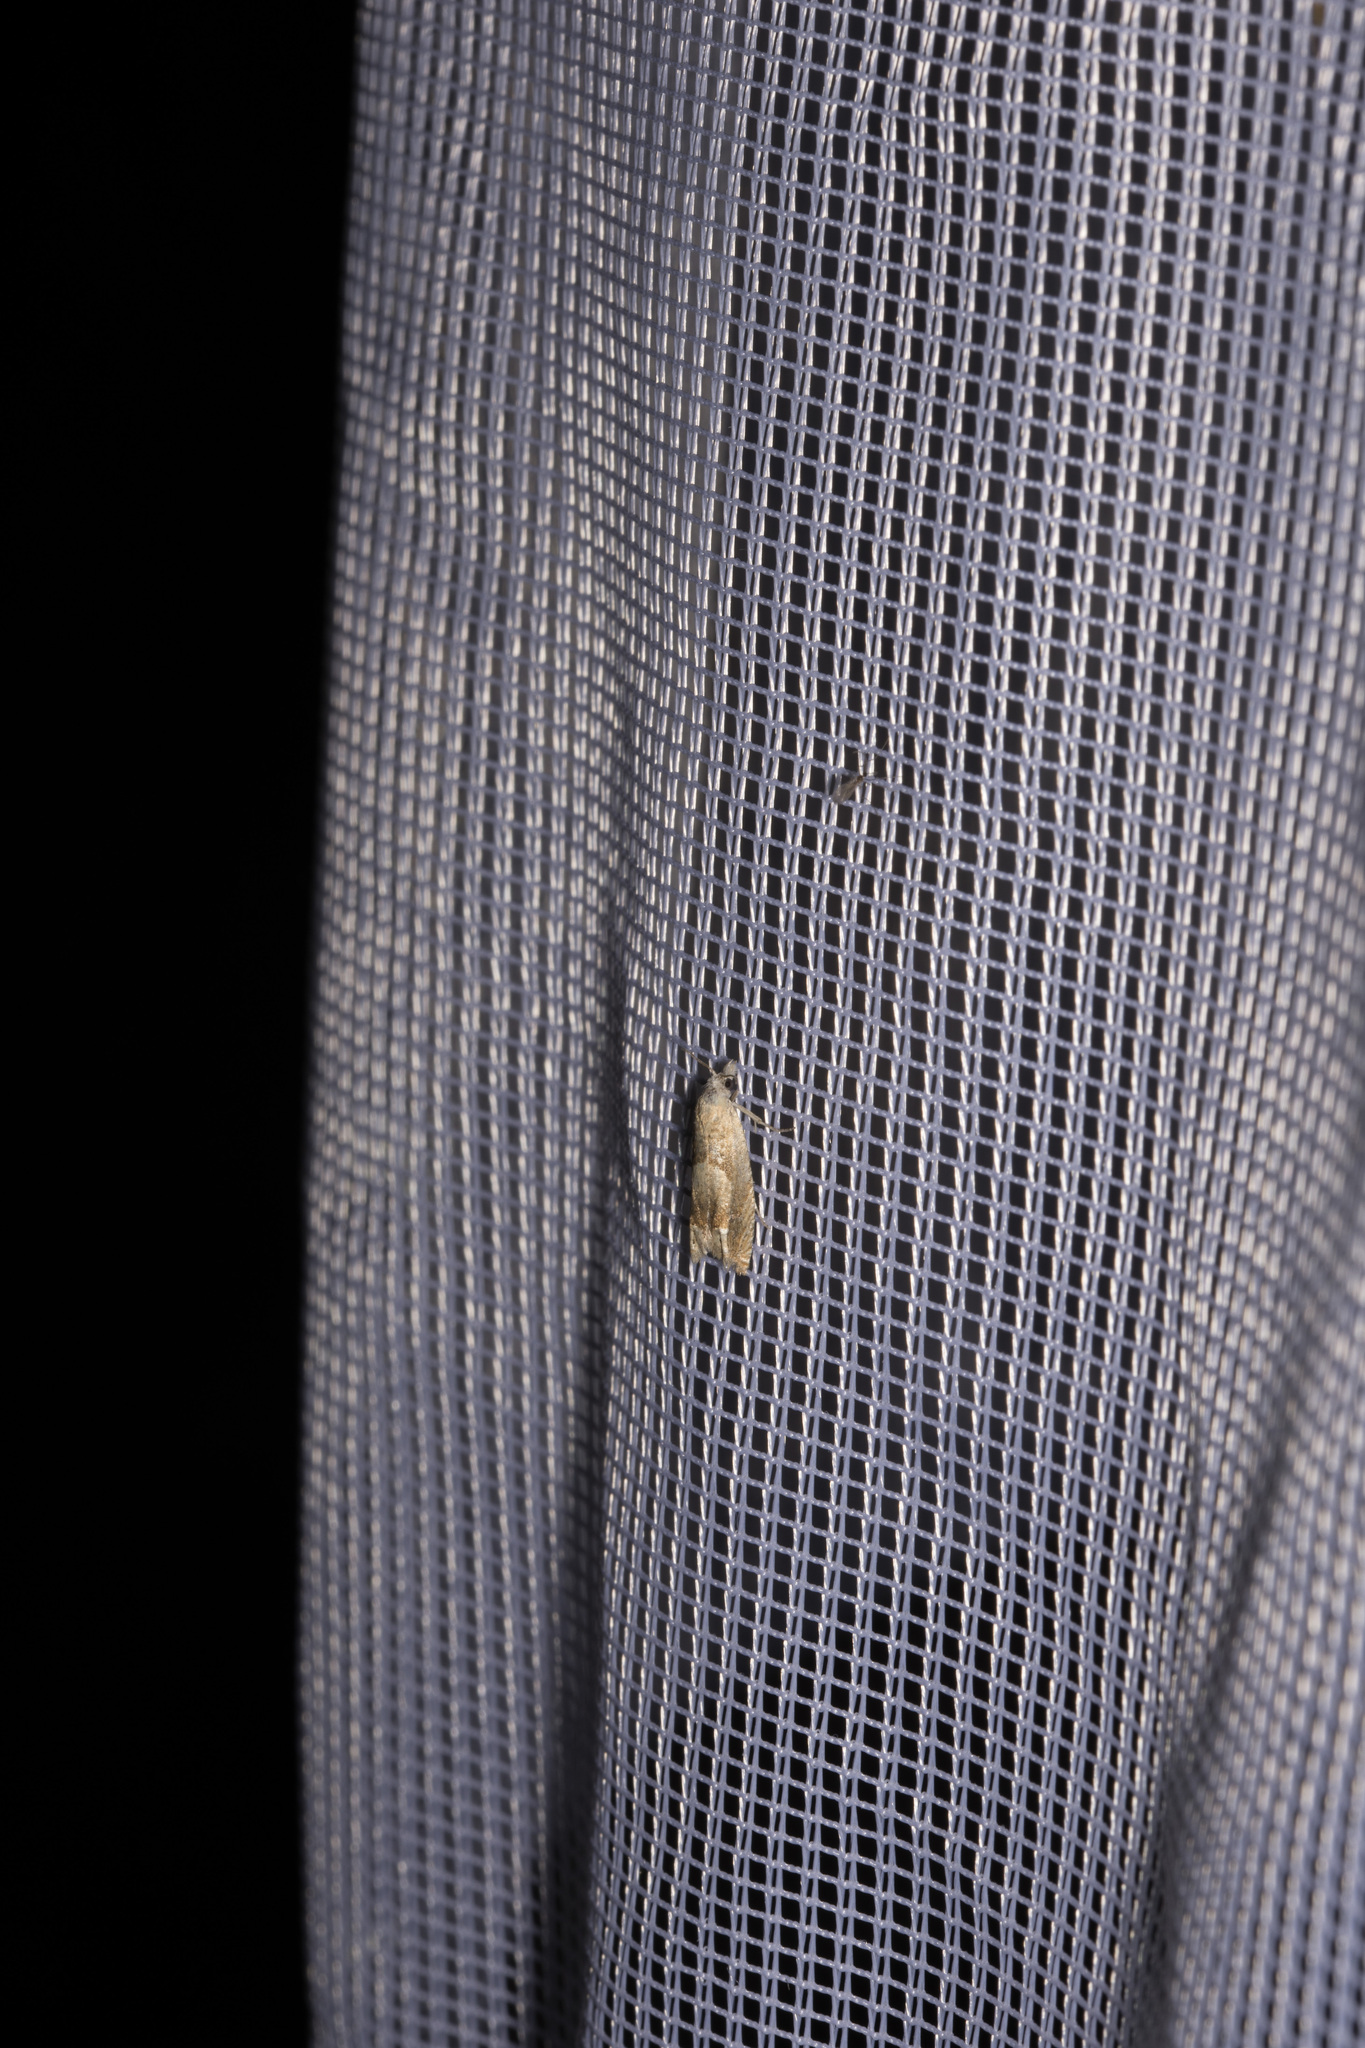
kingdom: Animalia
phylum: Arthropoda
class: Insecta
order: Lepidoptera
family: Tortricidae
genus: Eucosma
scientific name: Eucosma conterminana
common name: Pale lettuce bell
